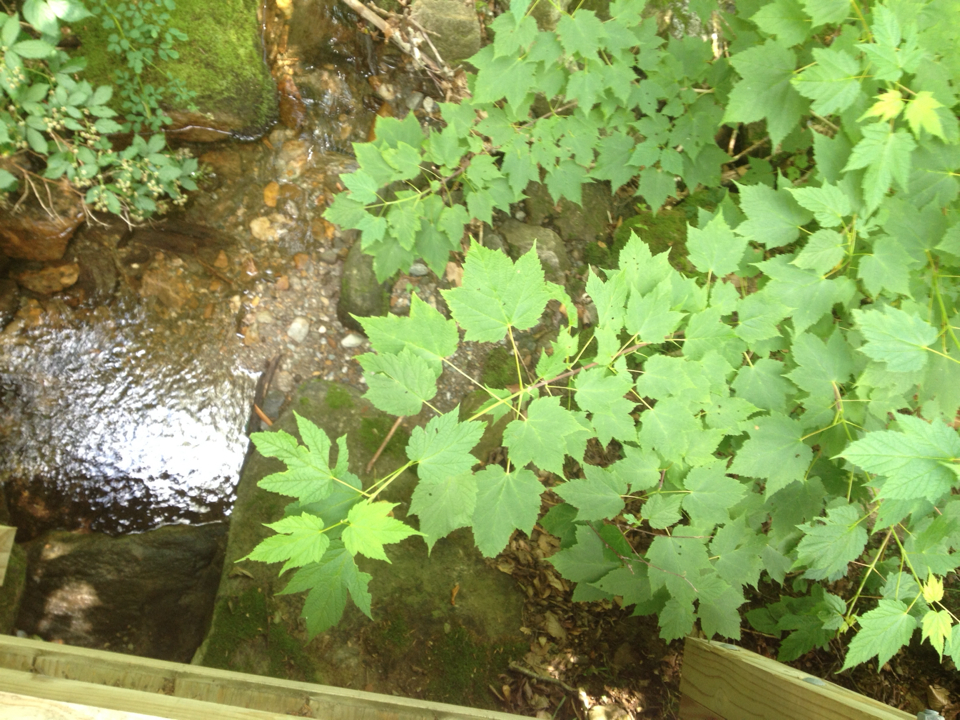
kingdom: Plantae
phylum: Tracheophyta
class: Magnoliopsida
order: Sapindales
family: Sapindaceae
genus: Acer
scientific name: Acer spicatum
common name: Mountain maple
